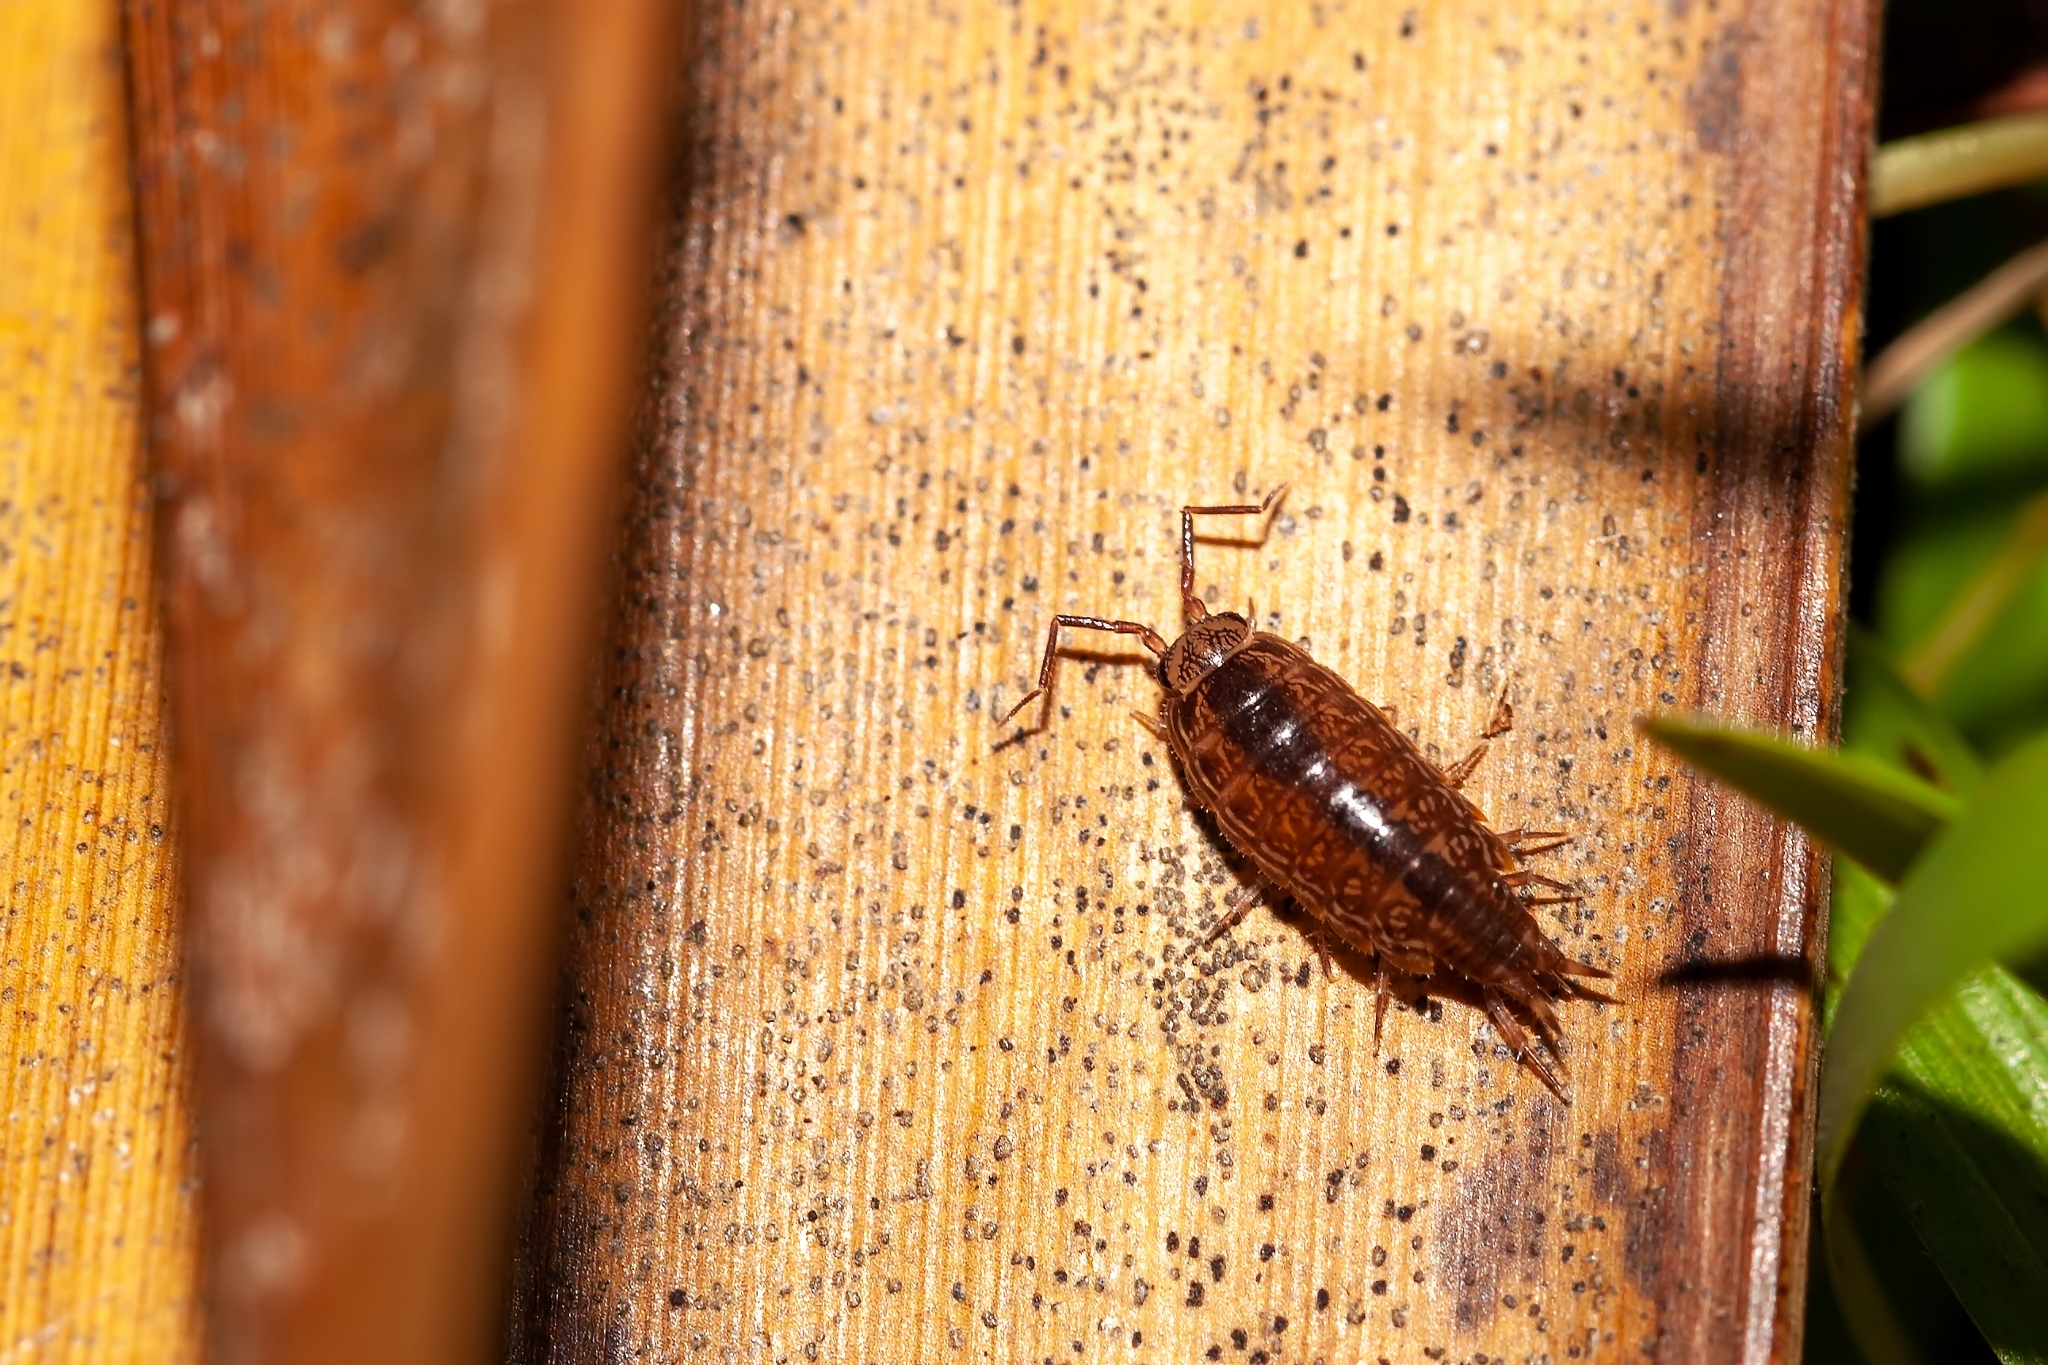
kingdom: Animalia
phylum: Arthropoda
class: Malacostraca
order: Isopoda
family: Philosciidae
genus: Atlantoscia
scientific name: Atlantoscia floridana
